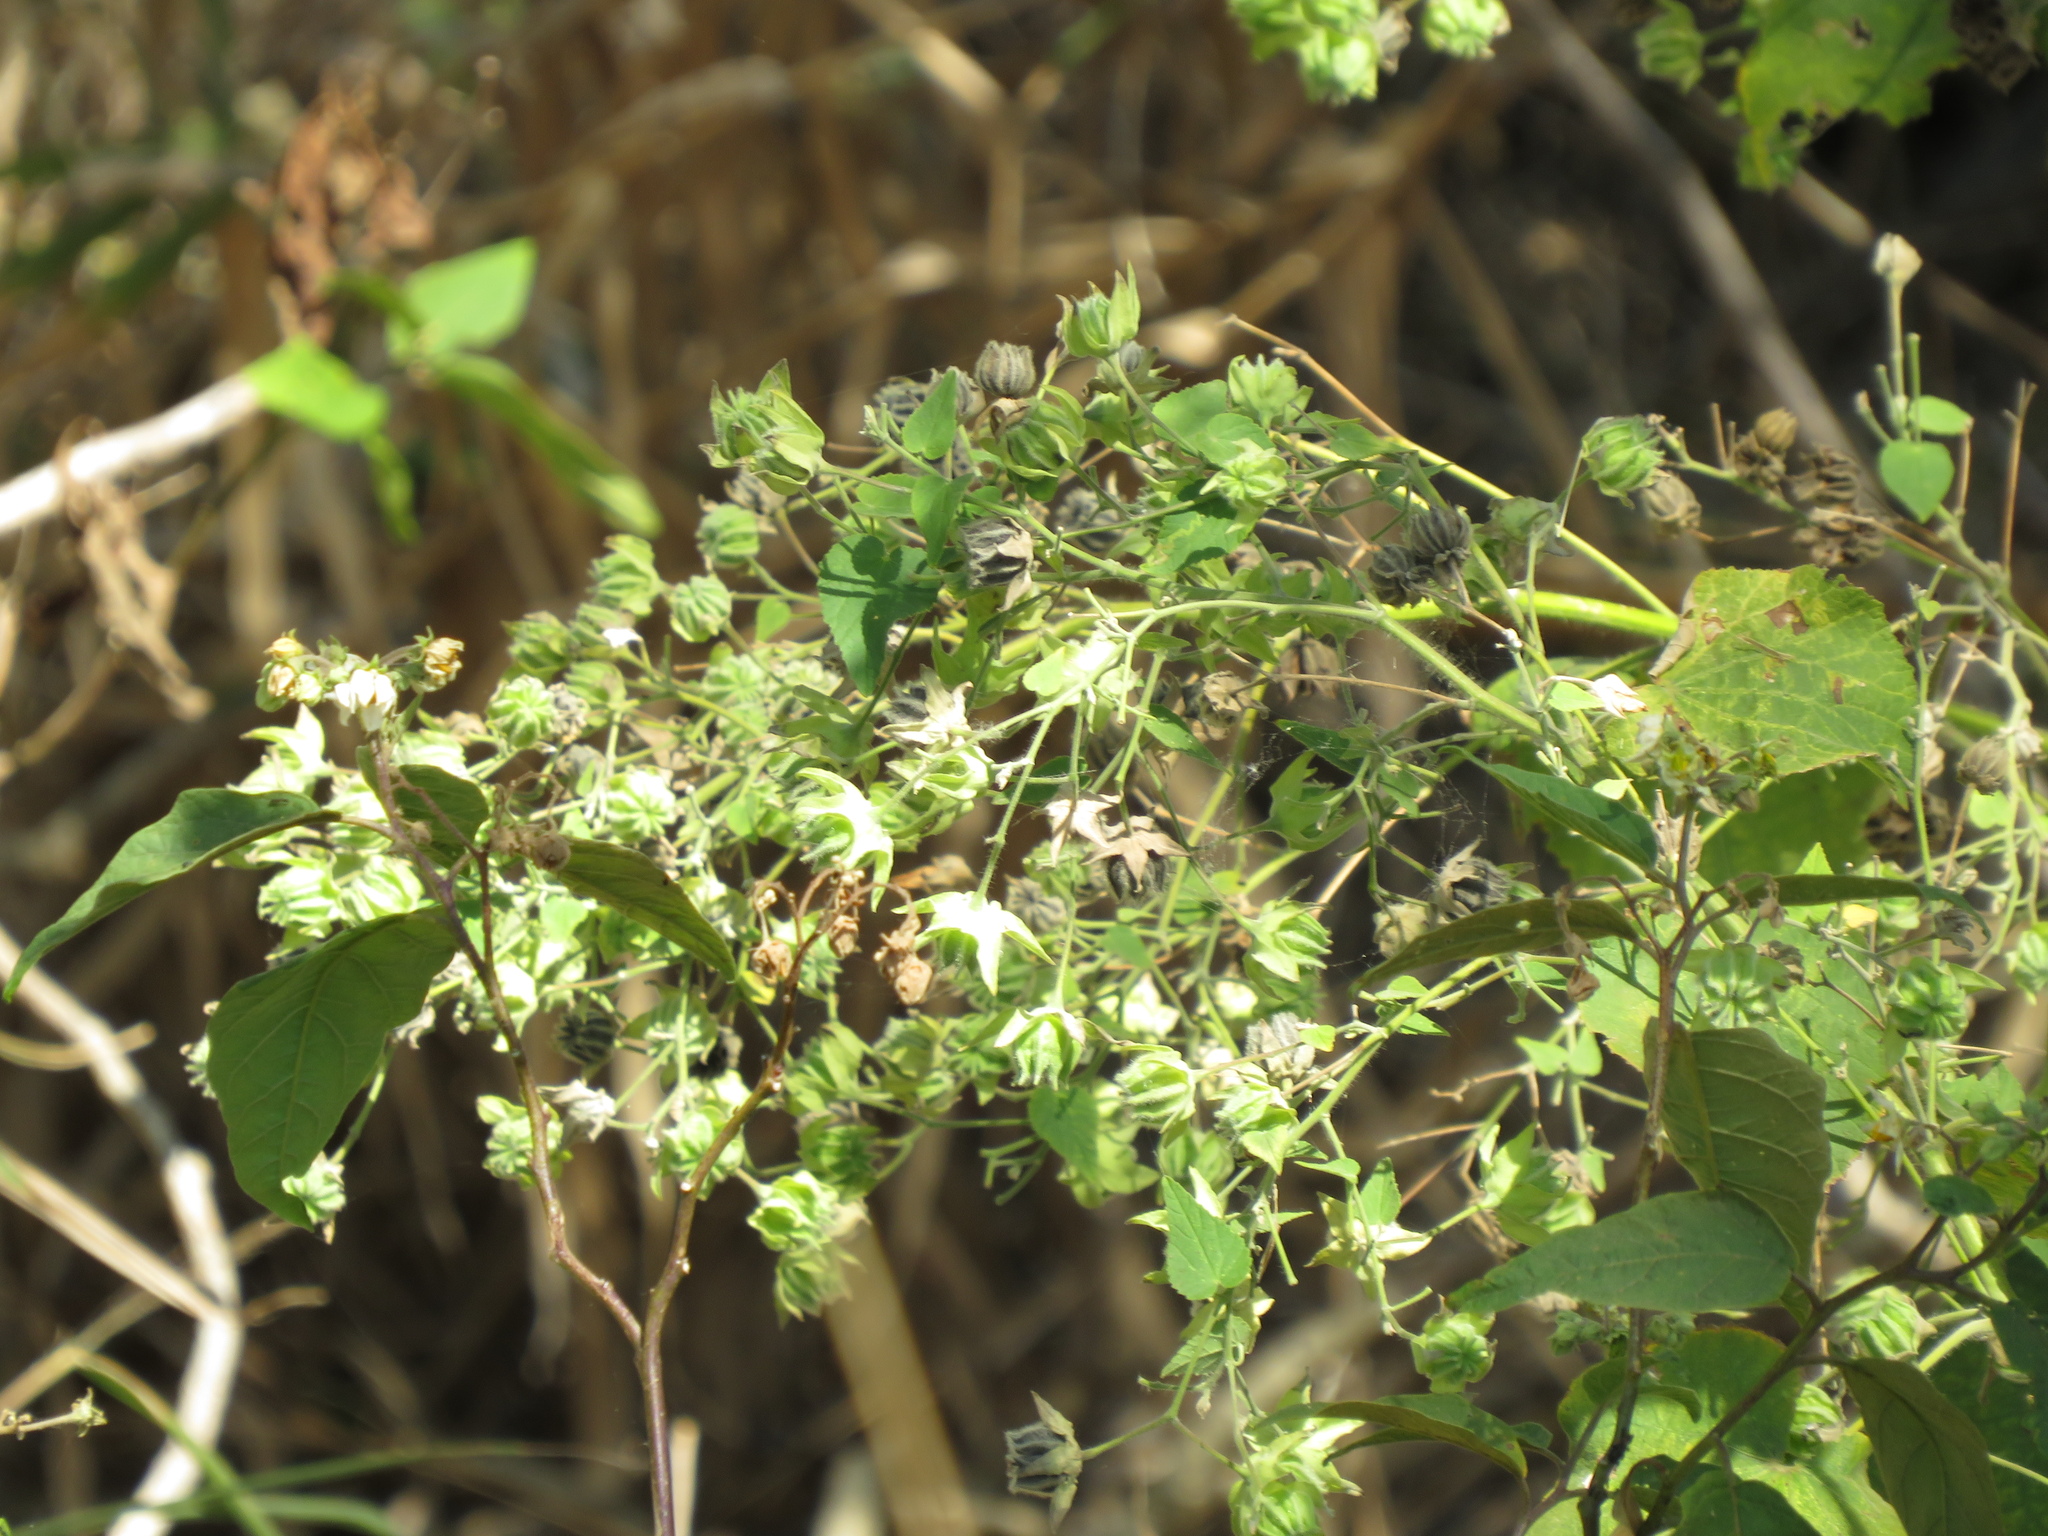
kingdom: Plantae
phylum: Tracheophyta
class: Magnoliopsida
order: Malvales
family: Malvaceae
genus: Abutilon
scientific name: Abutilon grandifolium
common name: Hairy abutilon
